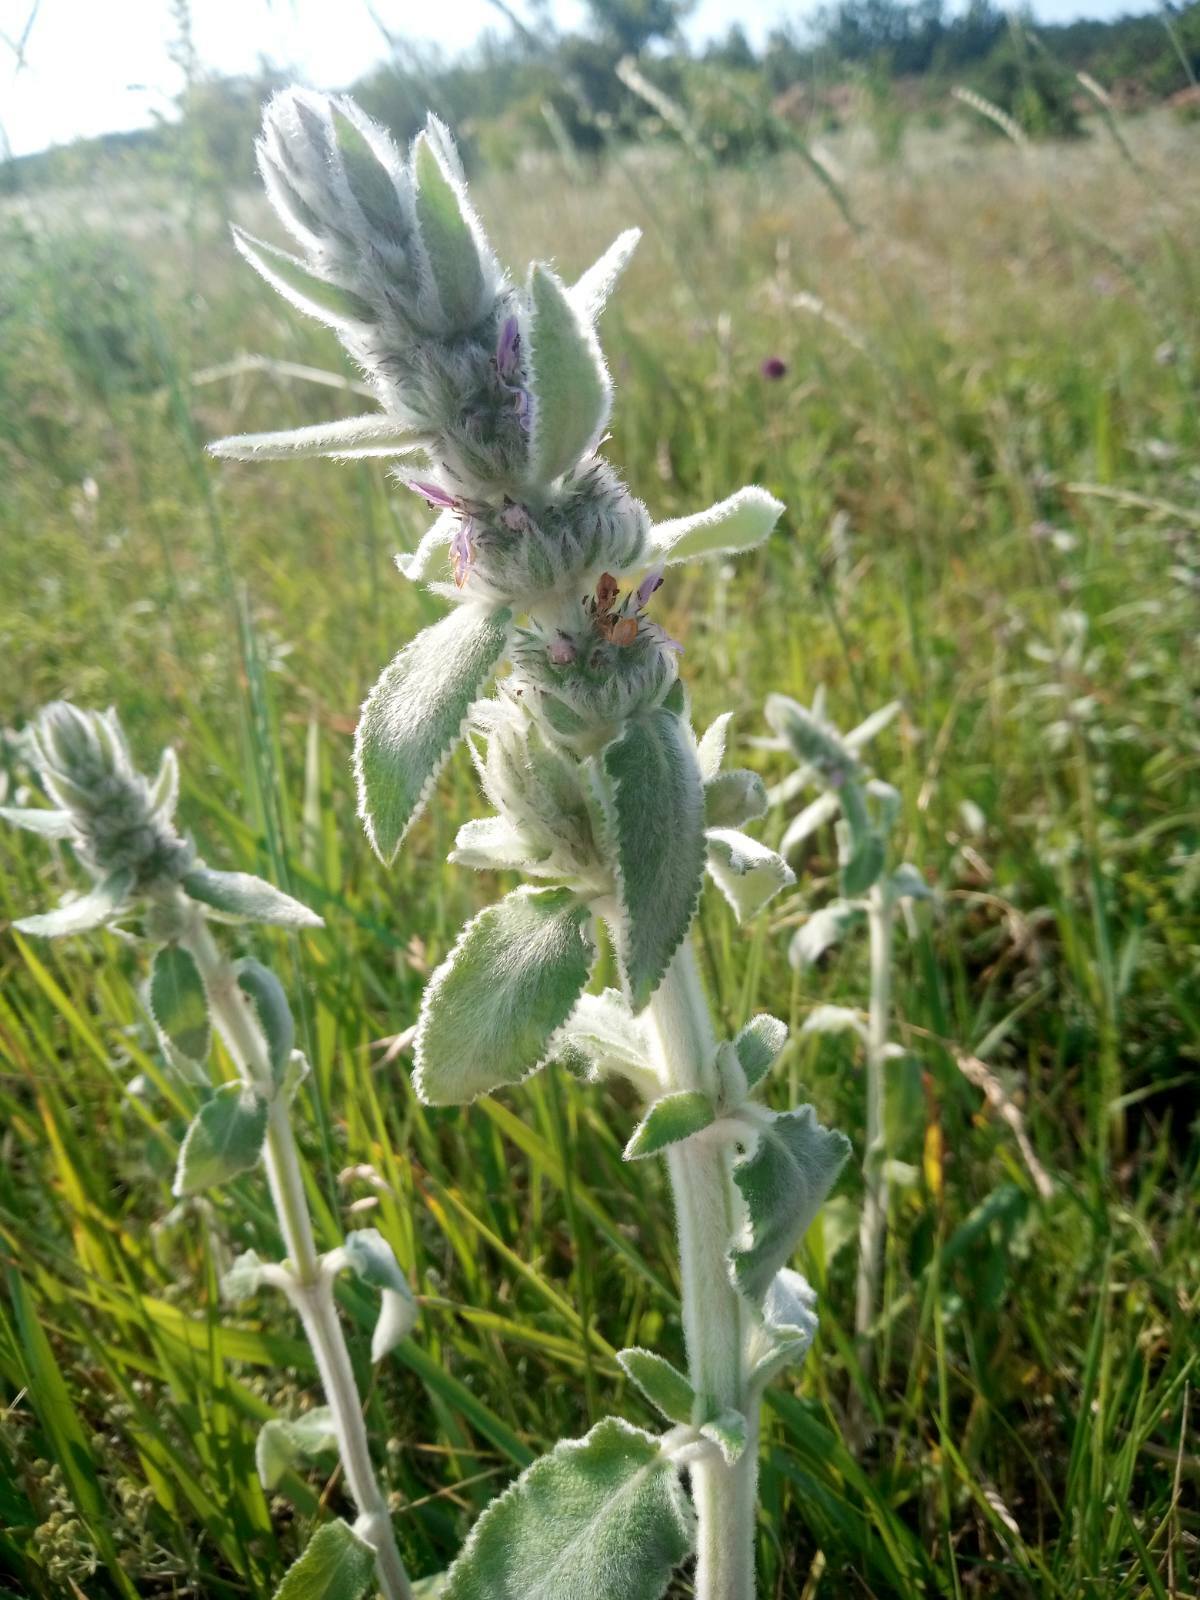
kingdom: Plantae
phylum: Tracheophyta
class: Magnoliopsida
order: Lamiales
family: Lamiaceae
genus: Stachys
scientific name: Stachys germanica
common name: Downy woundwort
